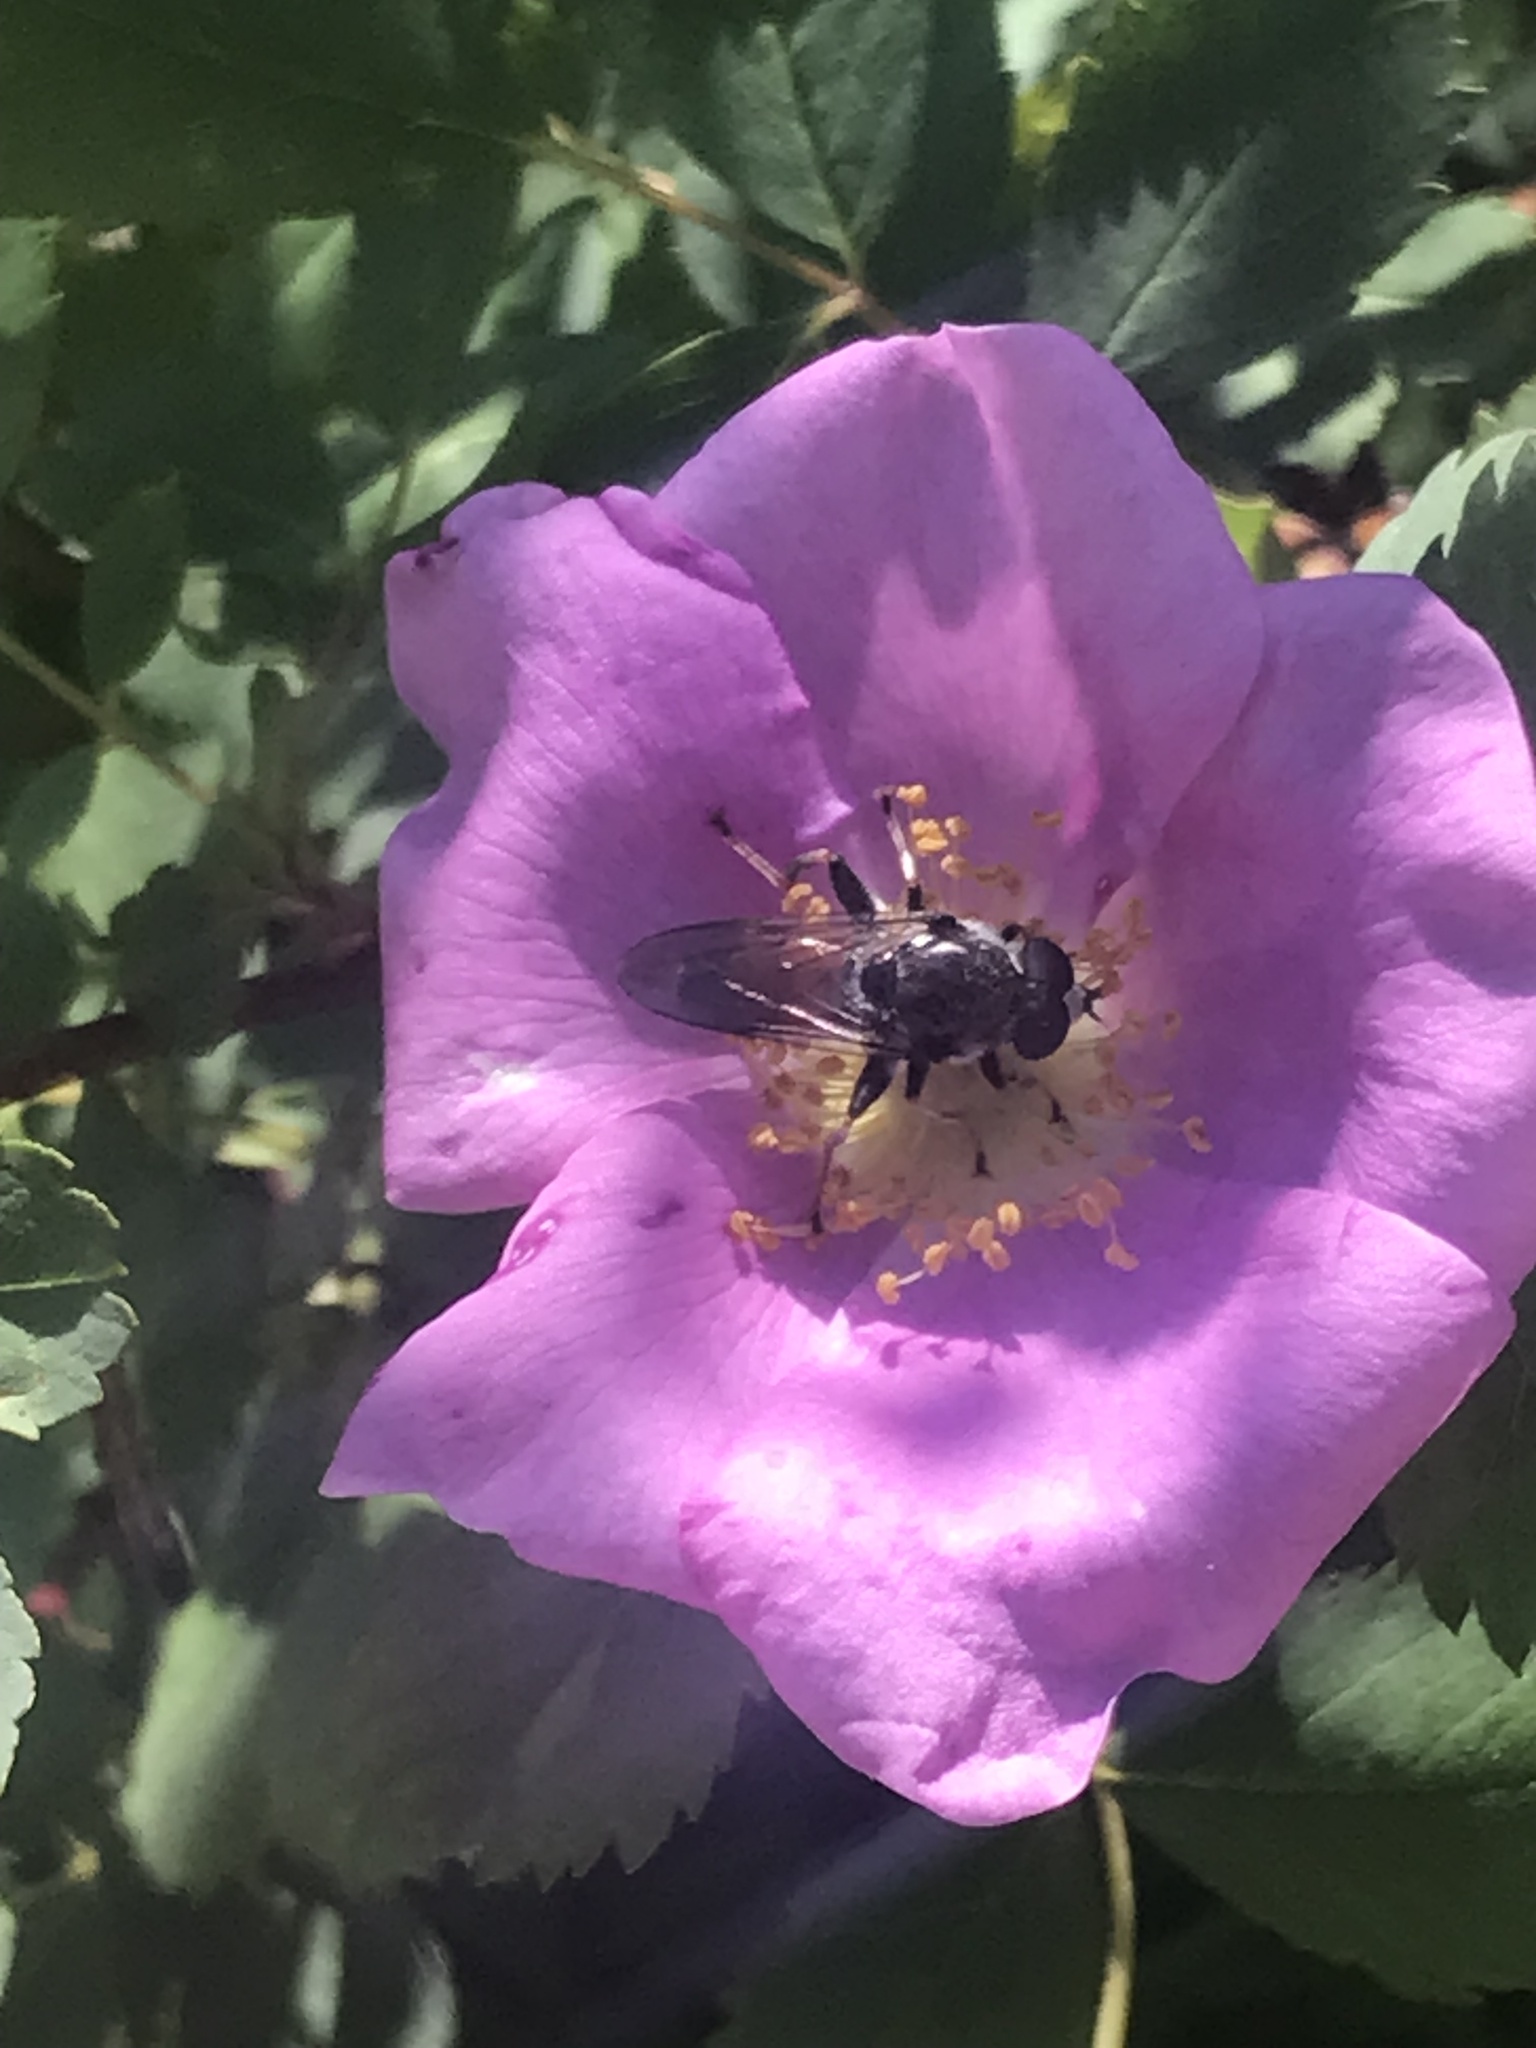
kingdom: Animalia
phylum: Arthropoda
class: Insecta
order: Diptera
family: Syrphidae
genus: Xylota
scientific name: Xylota flavitibia
